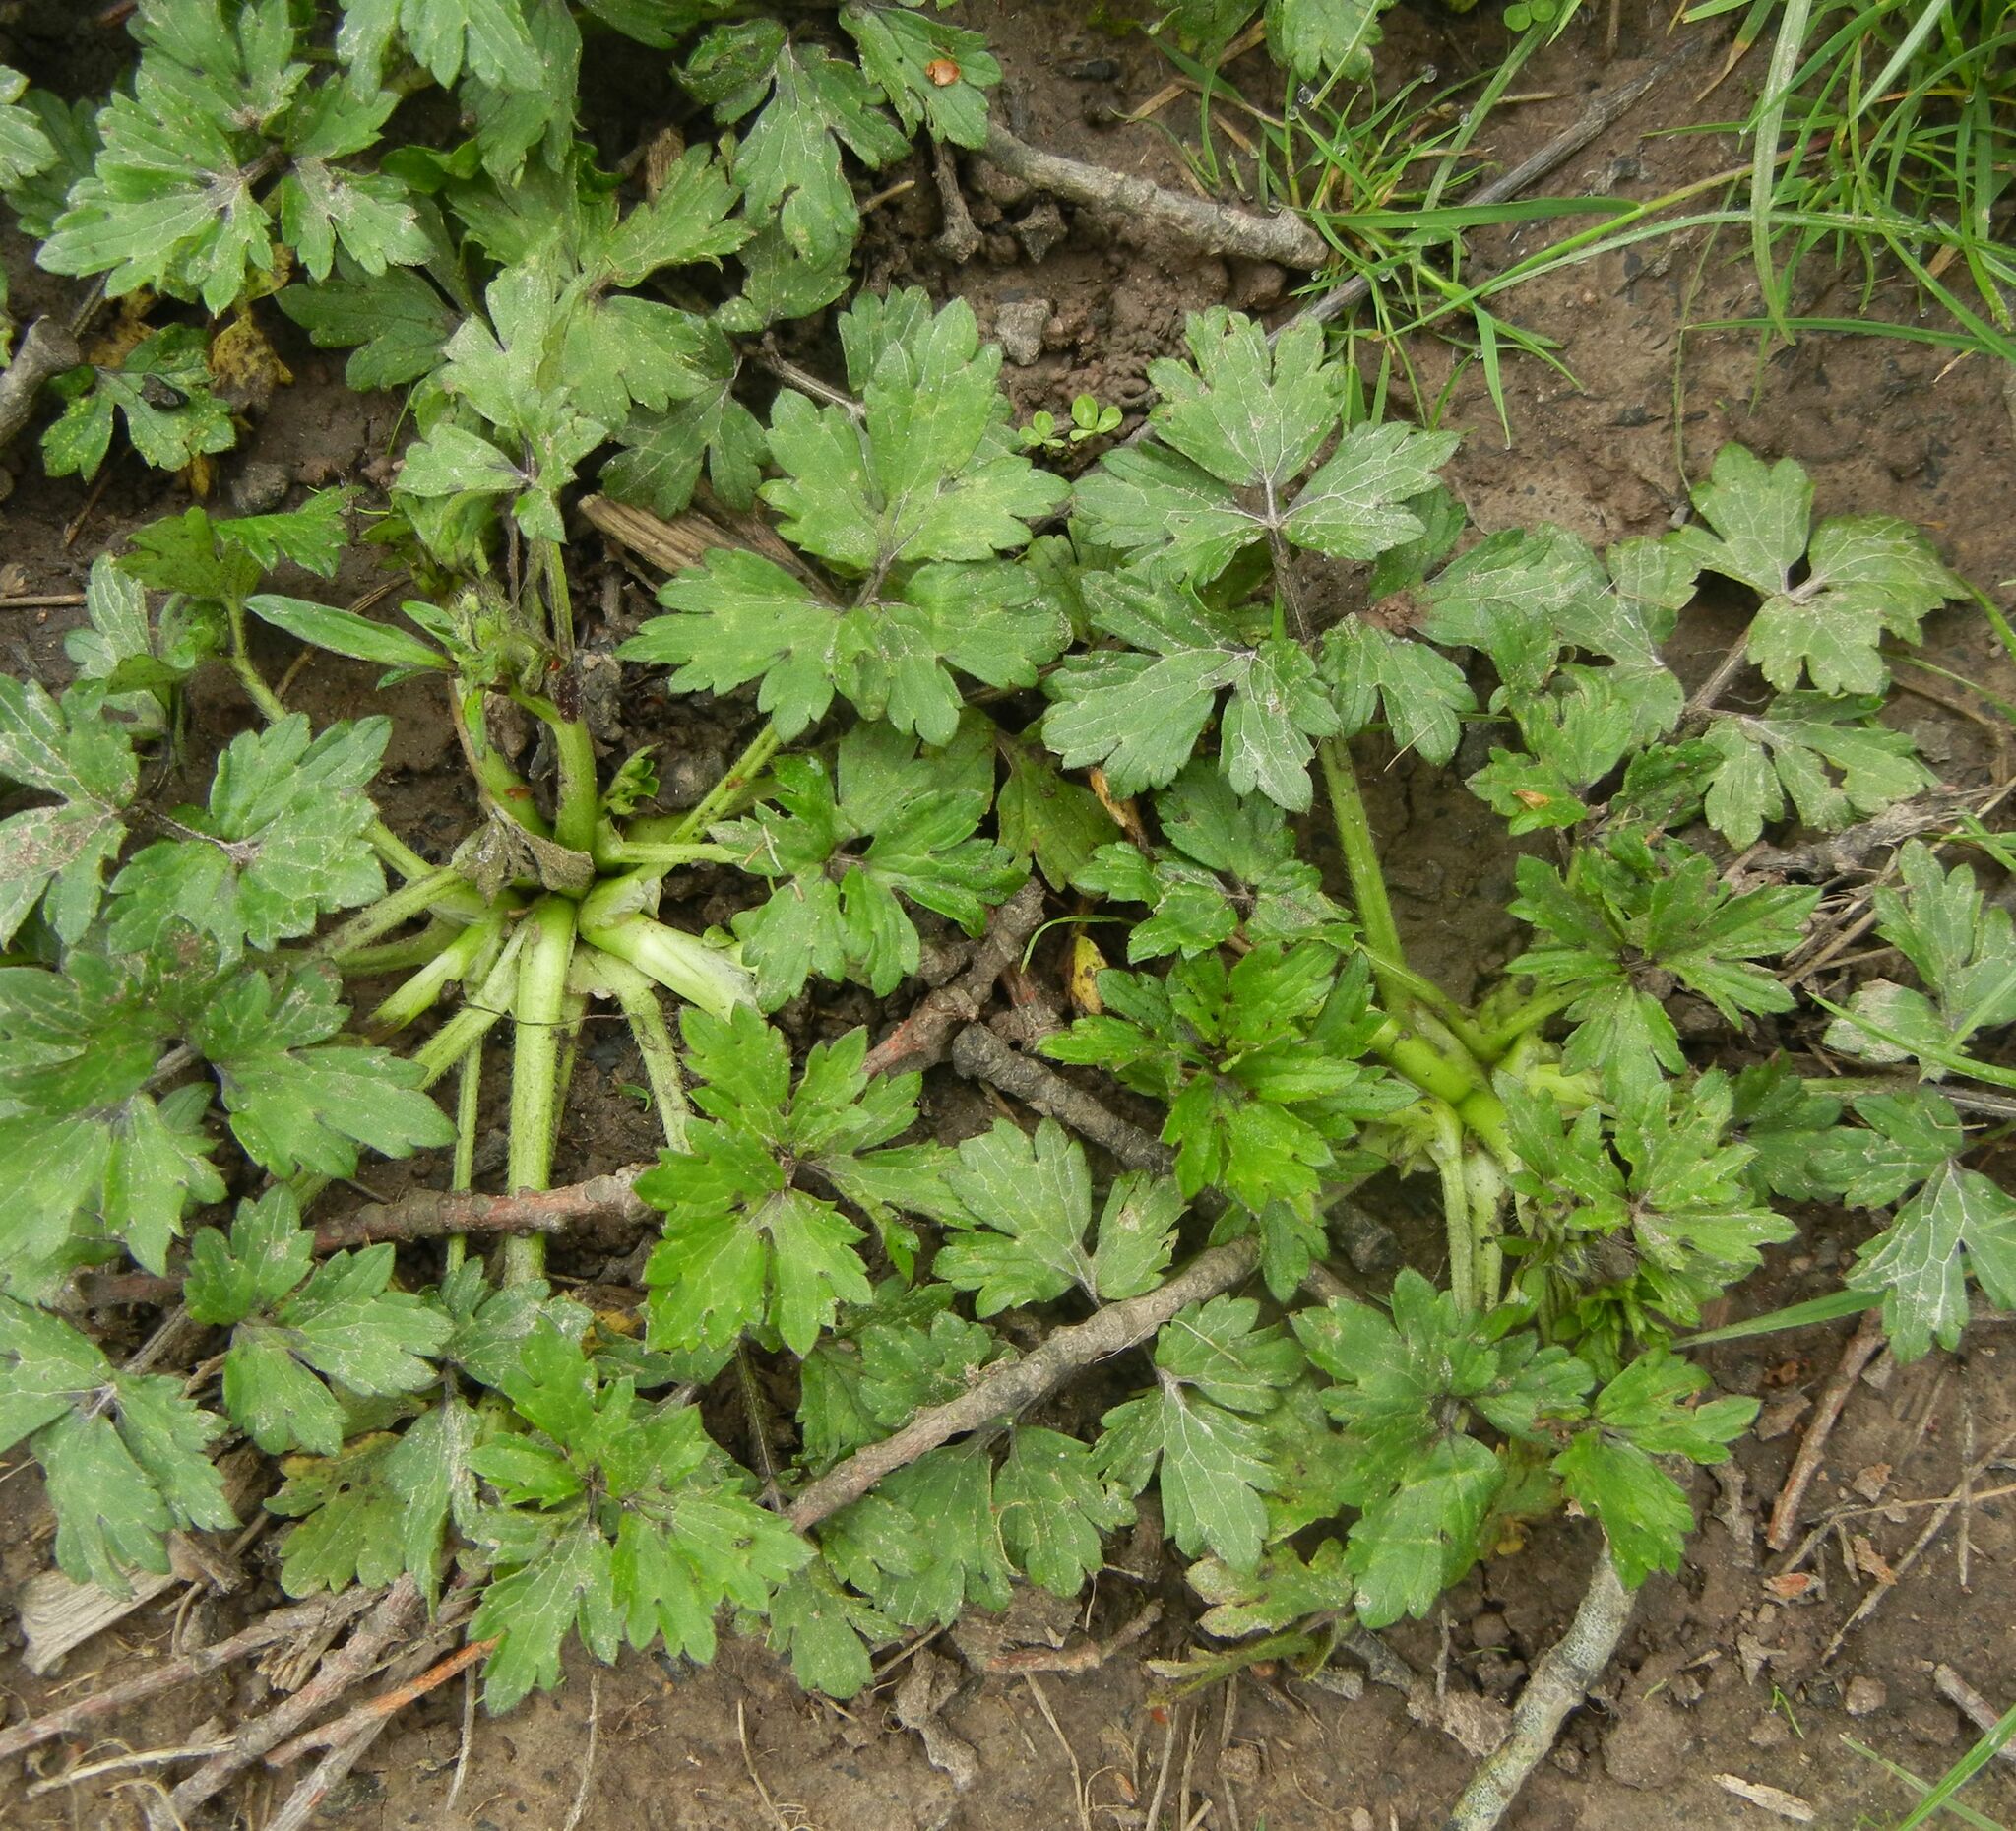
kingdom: Plantae
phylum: Tracheophyta
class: Magnoliopsida
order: Ranunculales
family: Ranunculaceae
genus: Ranunculus
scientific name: Ranunculus repens
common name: Creeping buttercup
